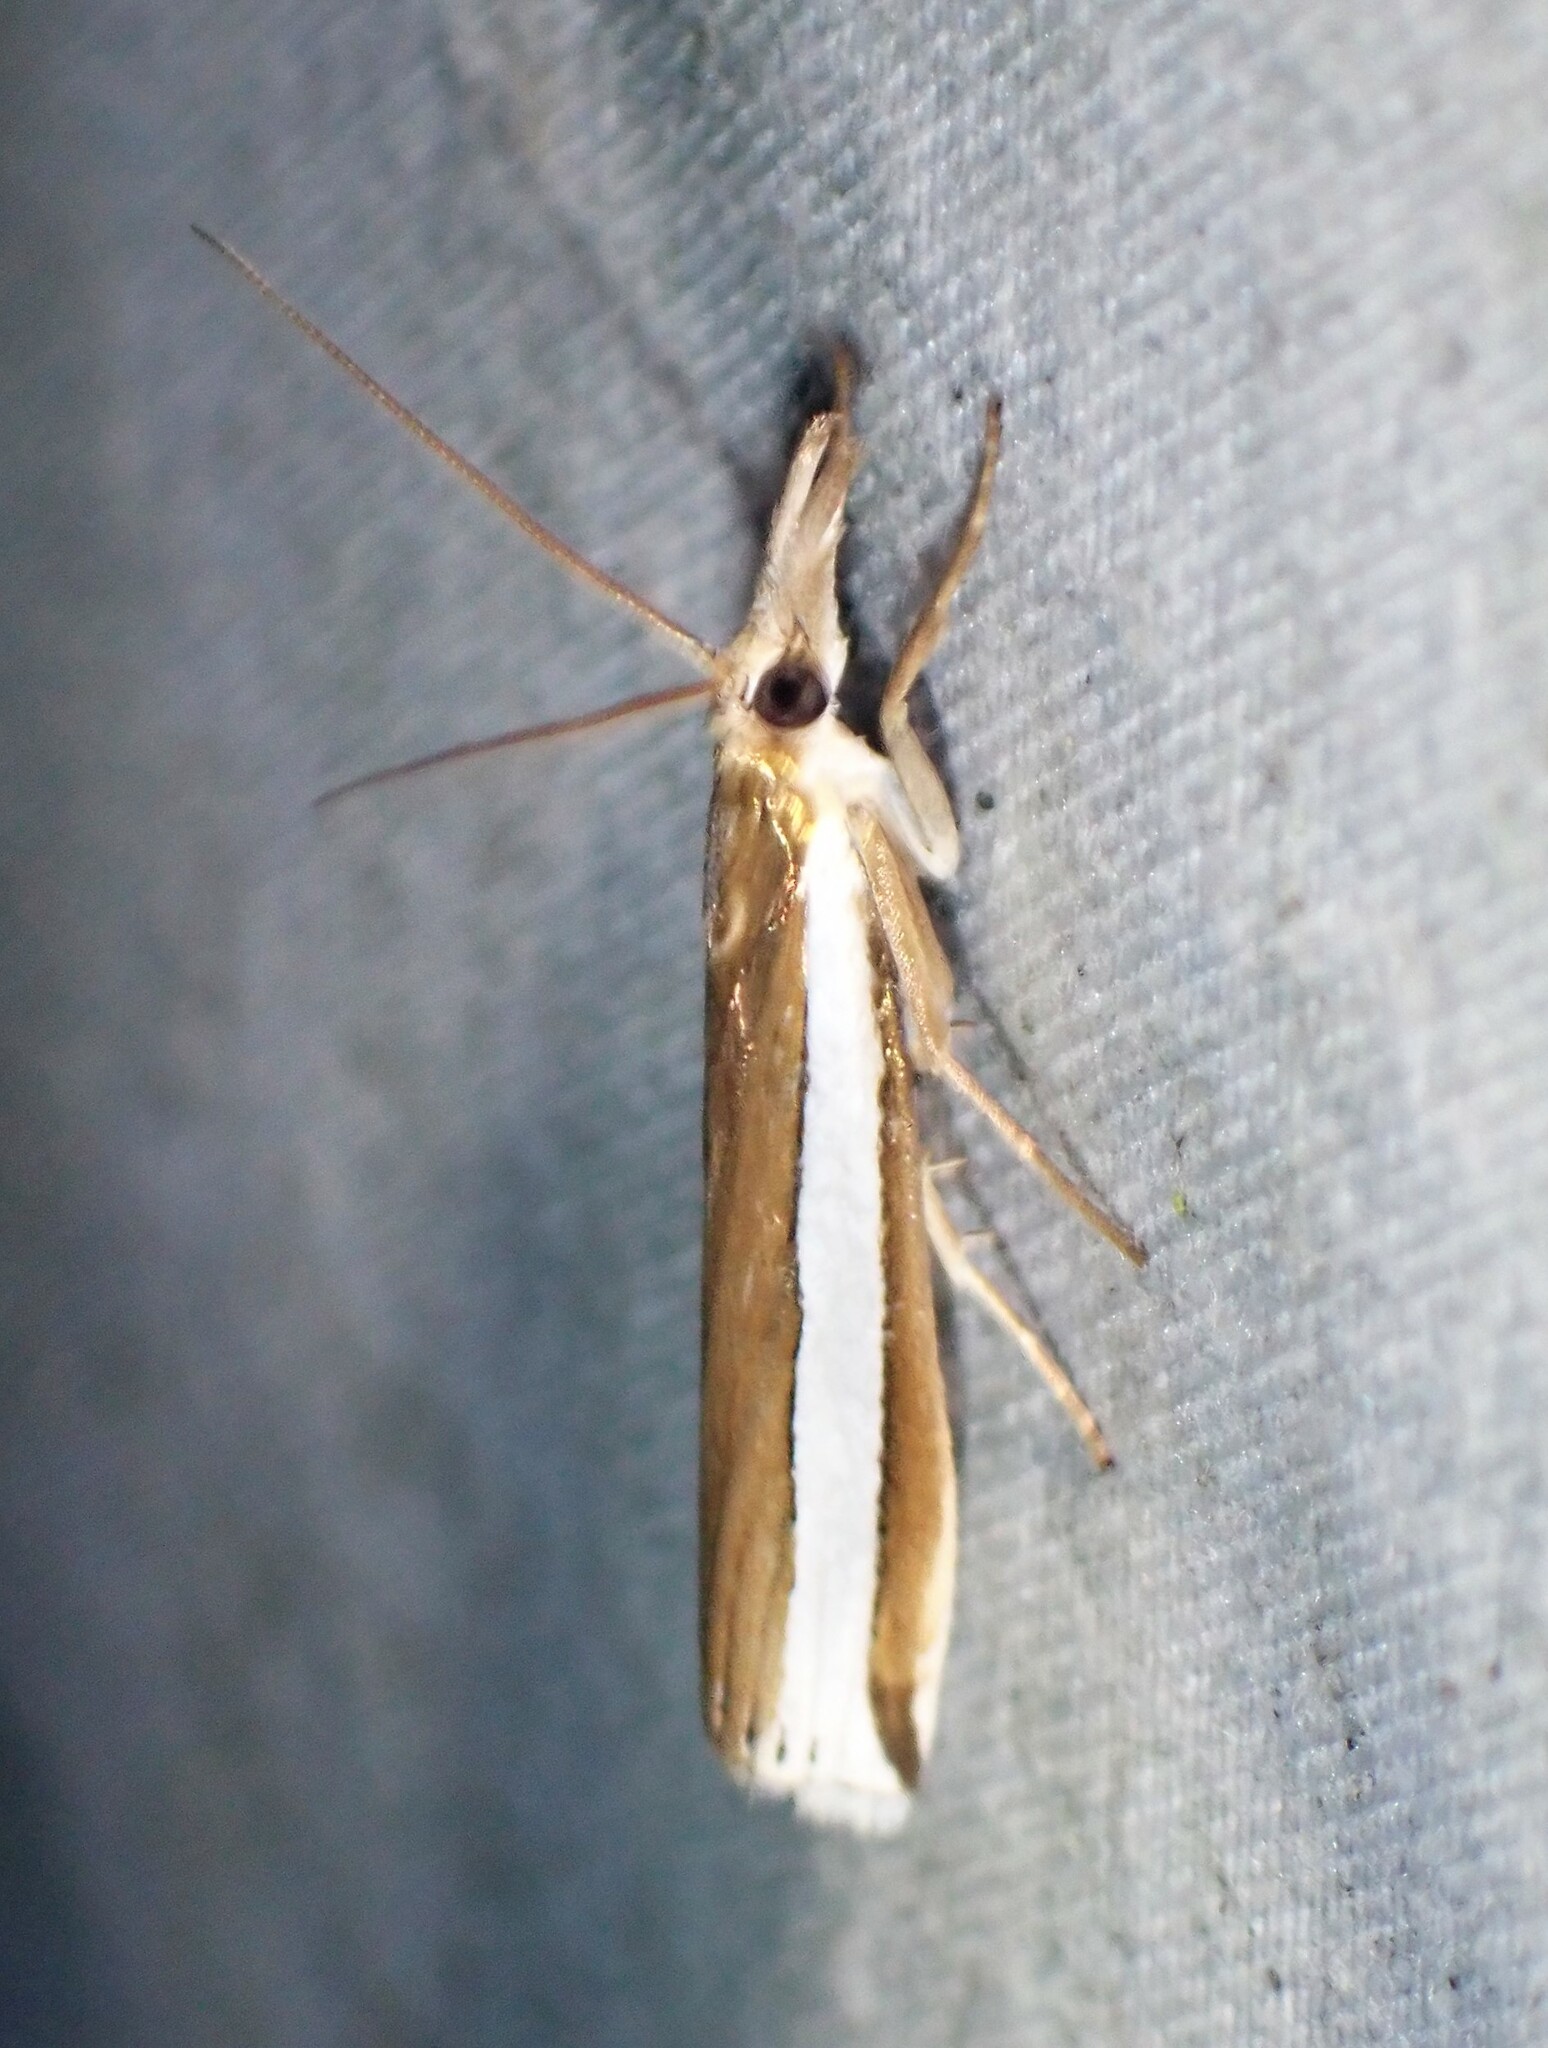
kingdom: Animalia
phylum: Arthropoda
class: Insecta
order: Lepidoptera
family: Crambidae
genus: Crambus
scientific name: Crambus unistriatellus
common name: Wide-stripe grass-veneer moth
